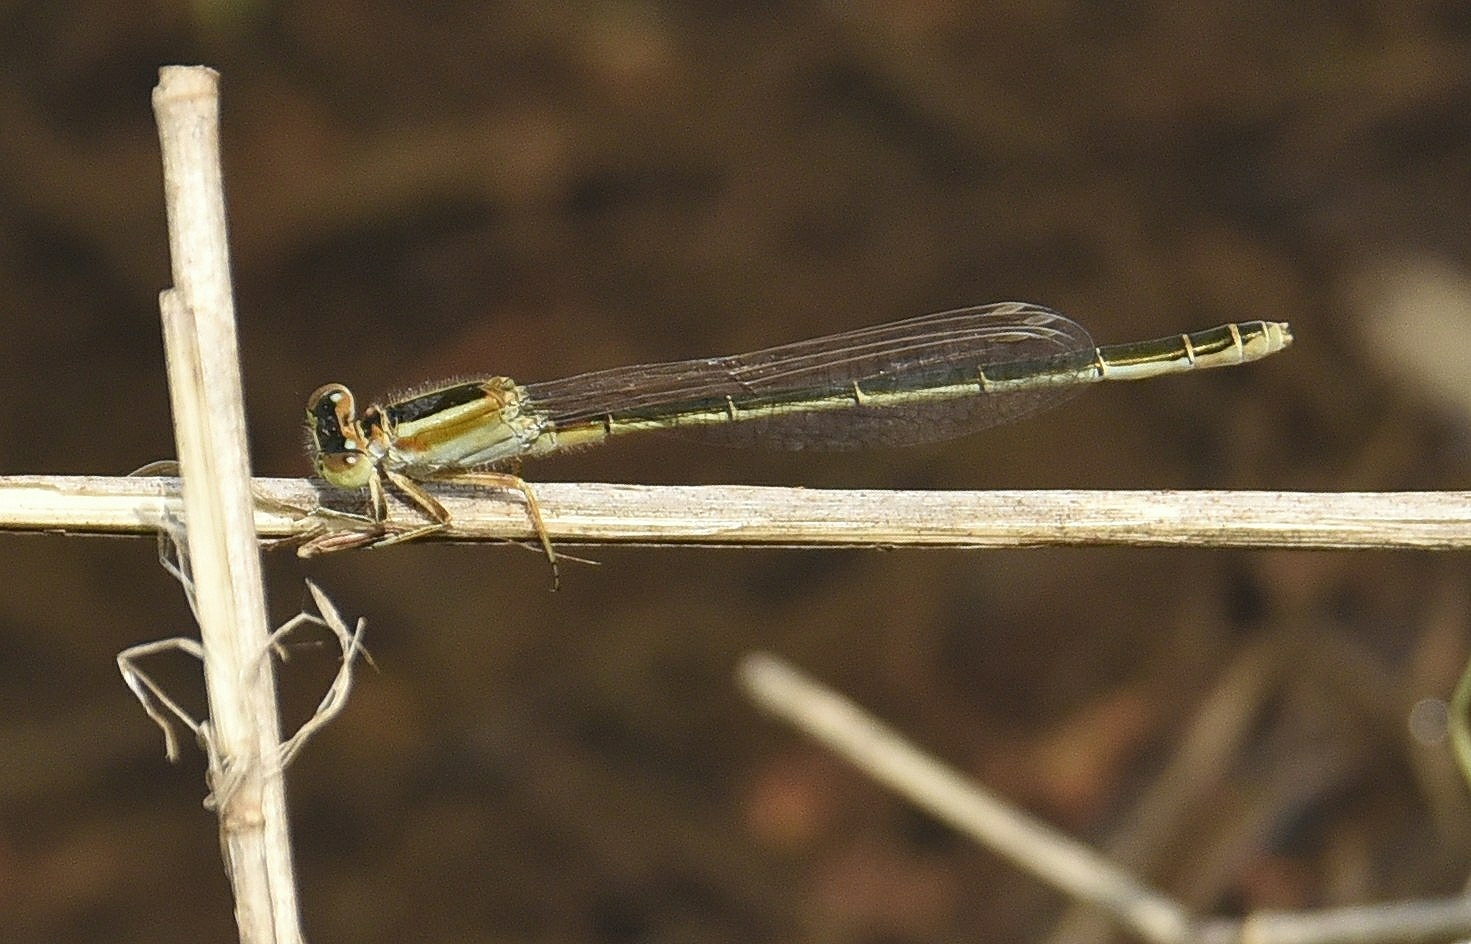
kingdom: Animalia
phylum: Arthropoda
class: Insecta
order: Odonata
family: Coenagrionidae
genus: Ischnura
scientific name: Ischnura senegalensis
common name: Tropical bluetail
